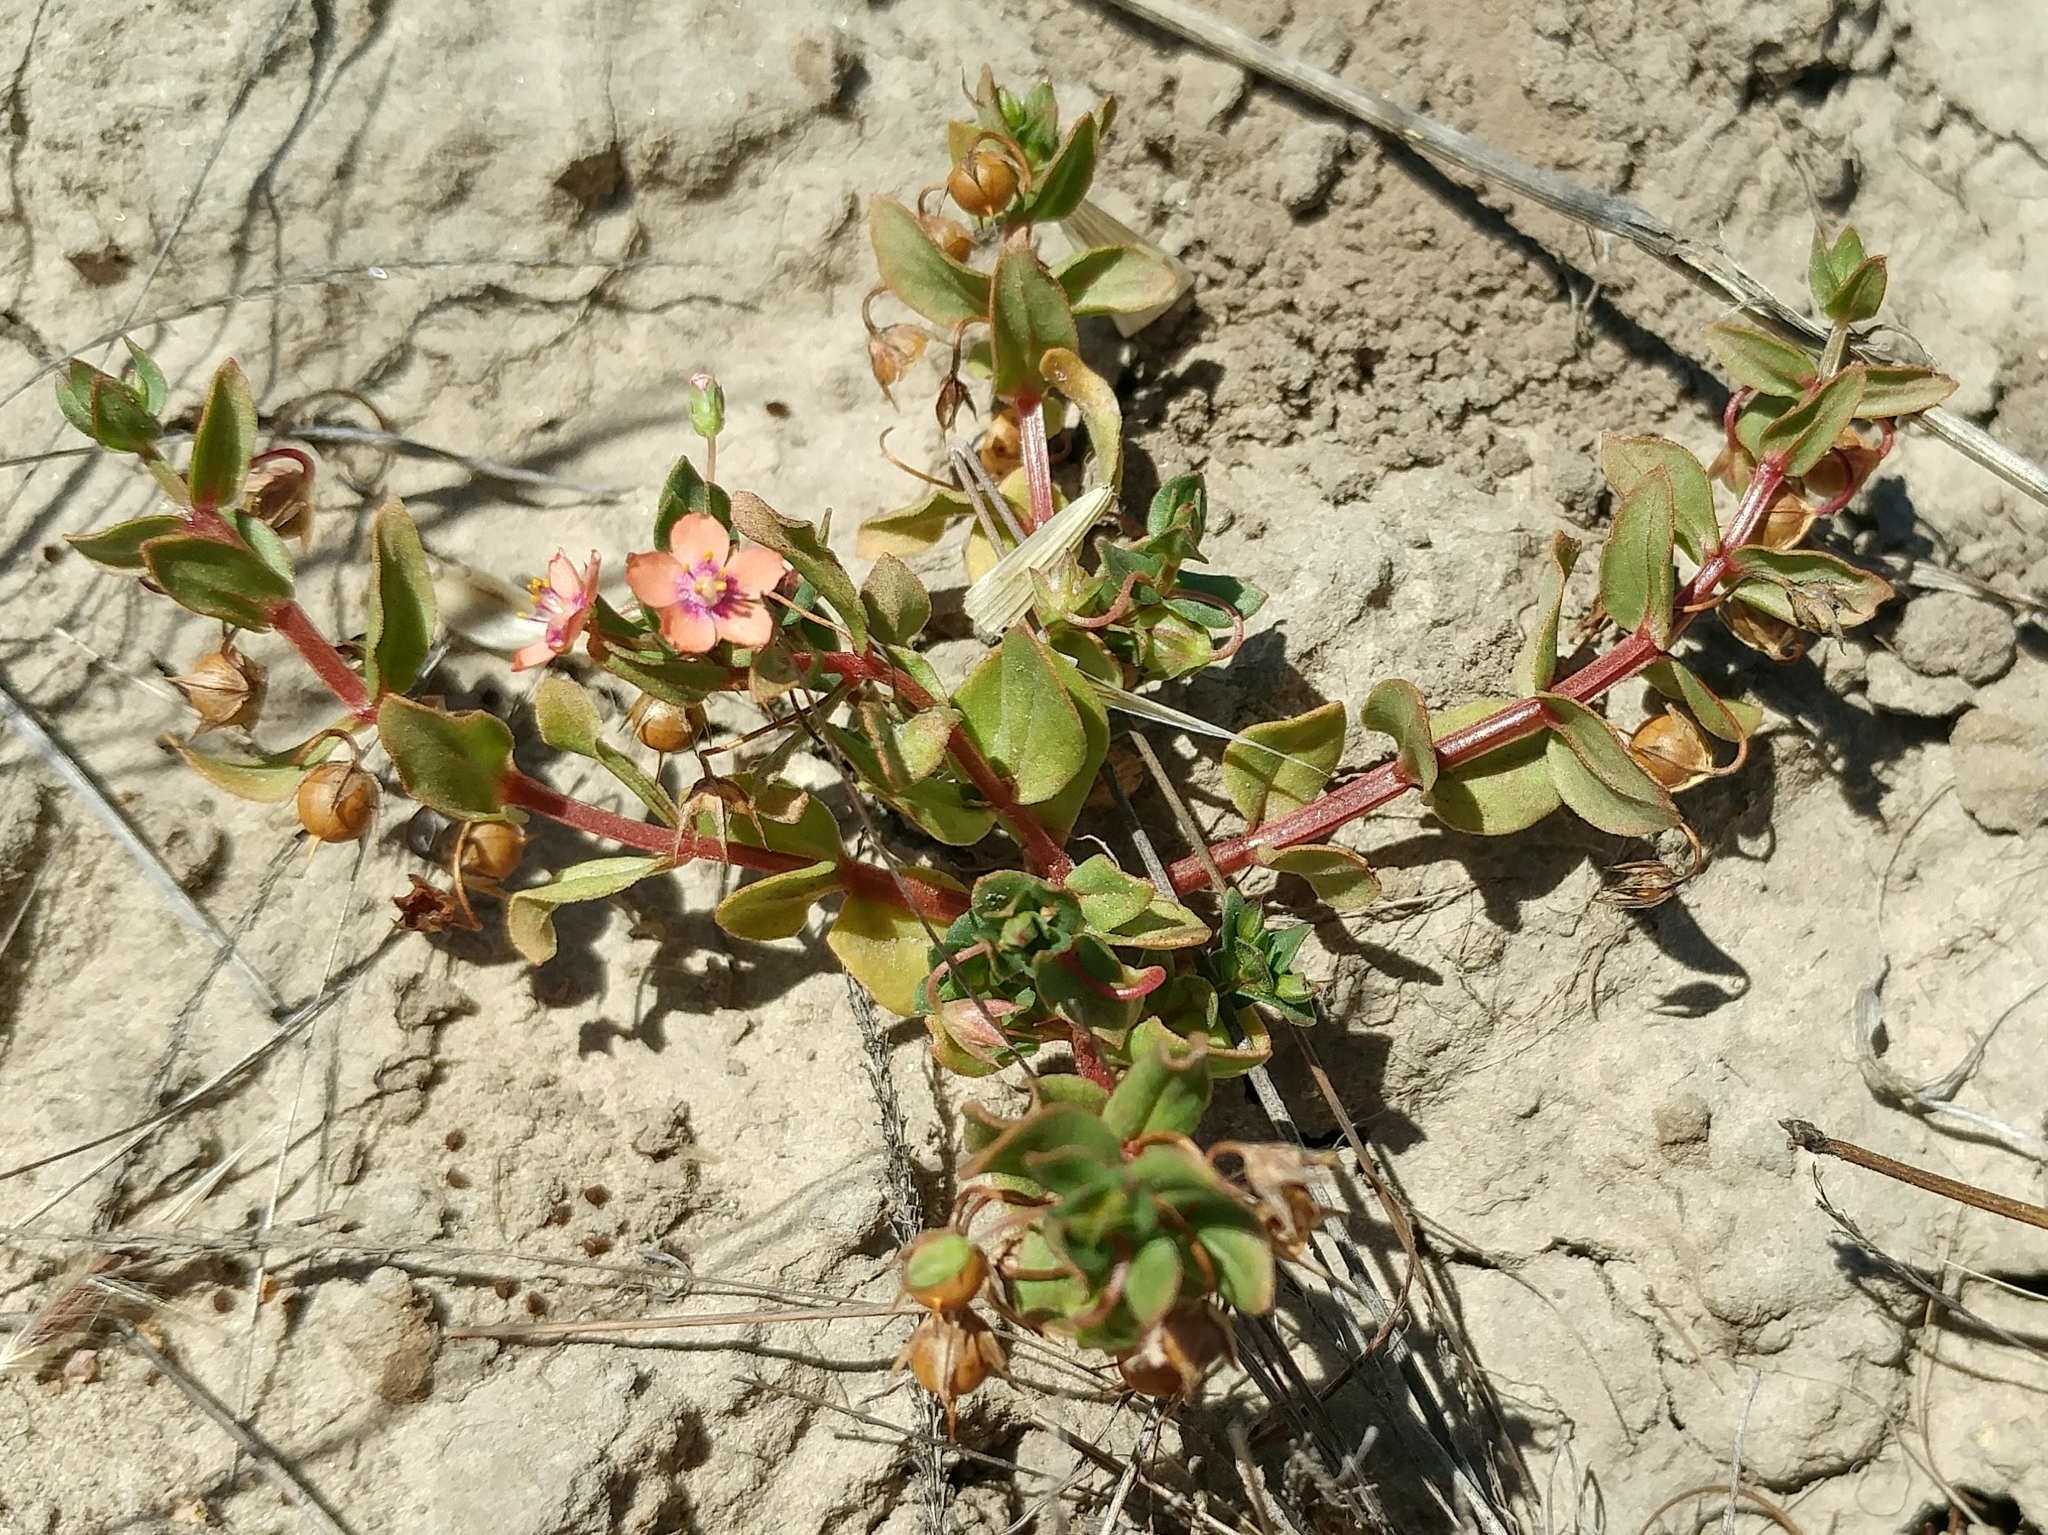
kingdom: Plantae
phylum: Tracheophyta
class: Magnoliopsida
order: Ericales
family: Primulaceae
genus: Lysimachia
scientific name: Lysimachia arvensis
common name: Scarlet pimpernel
